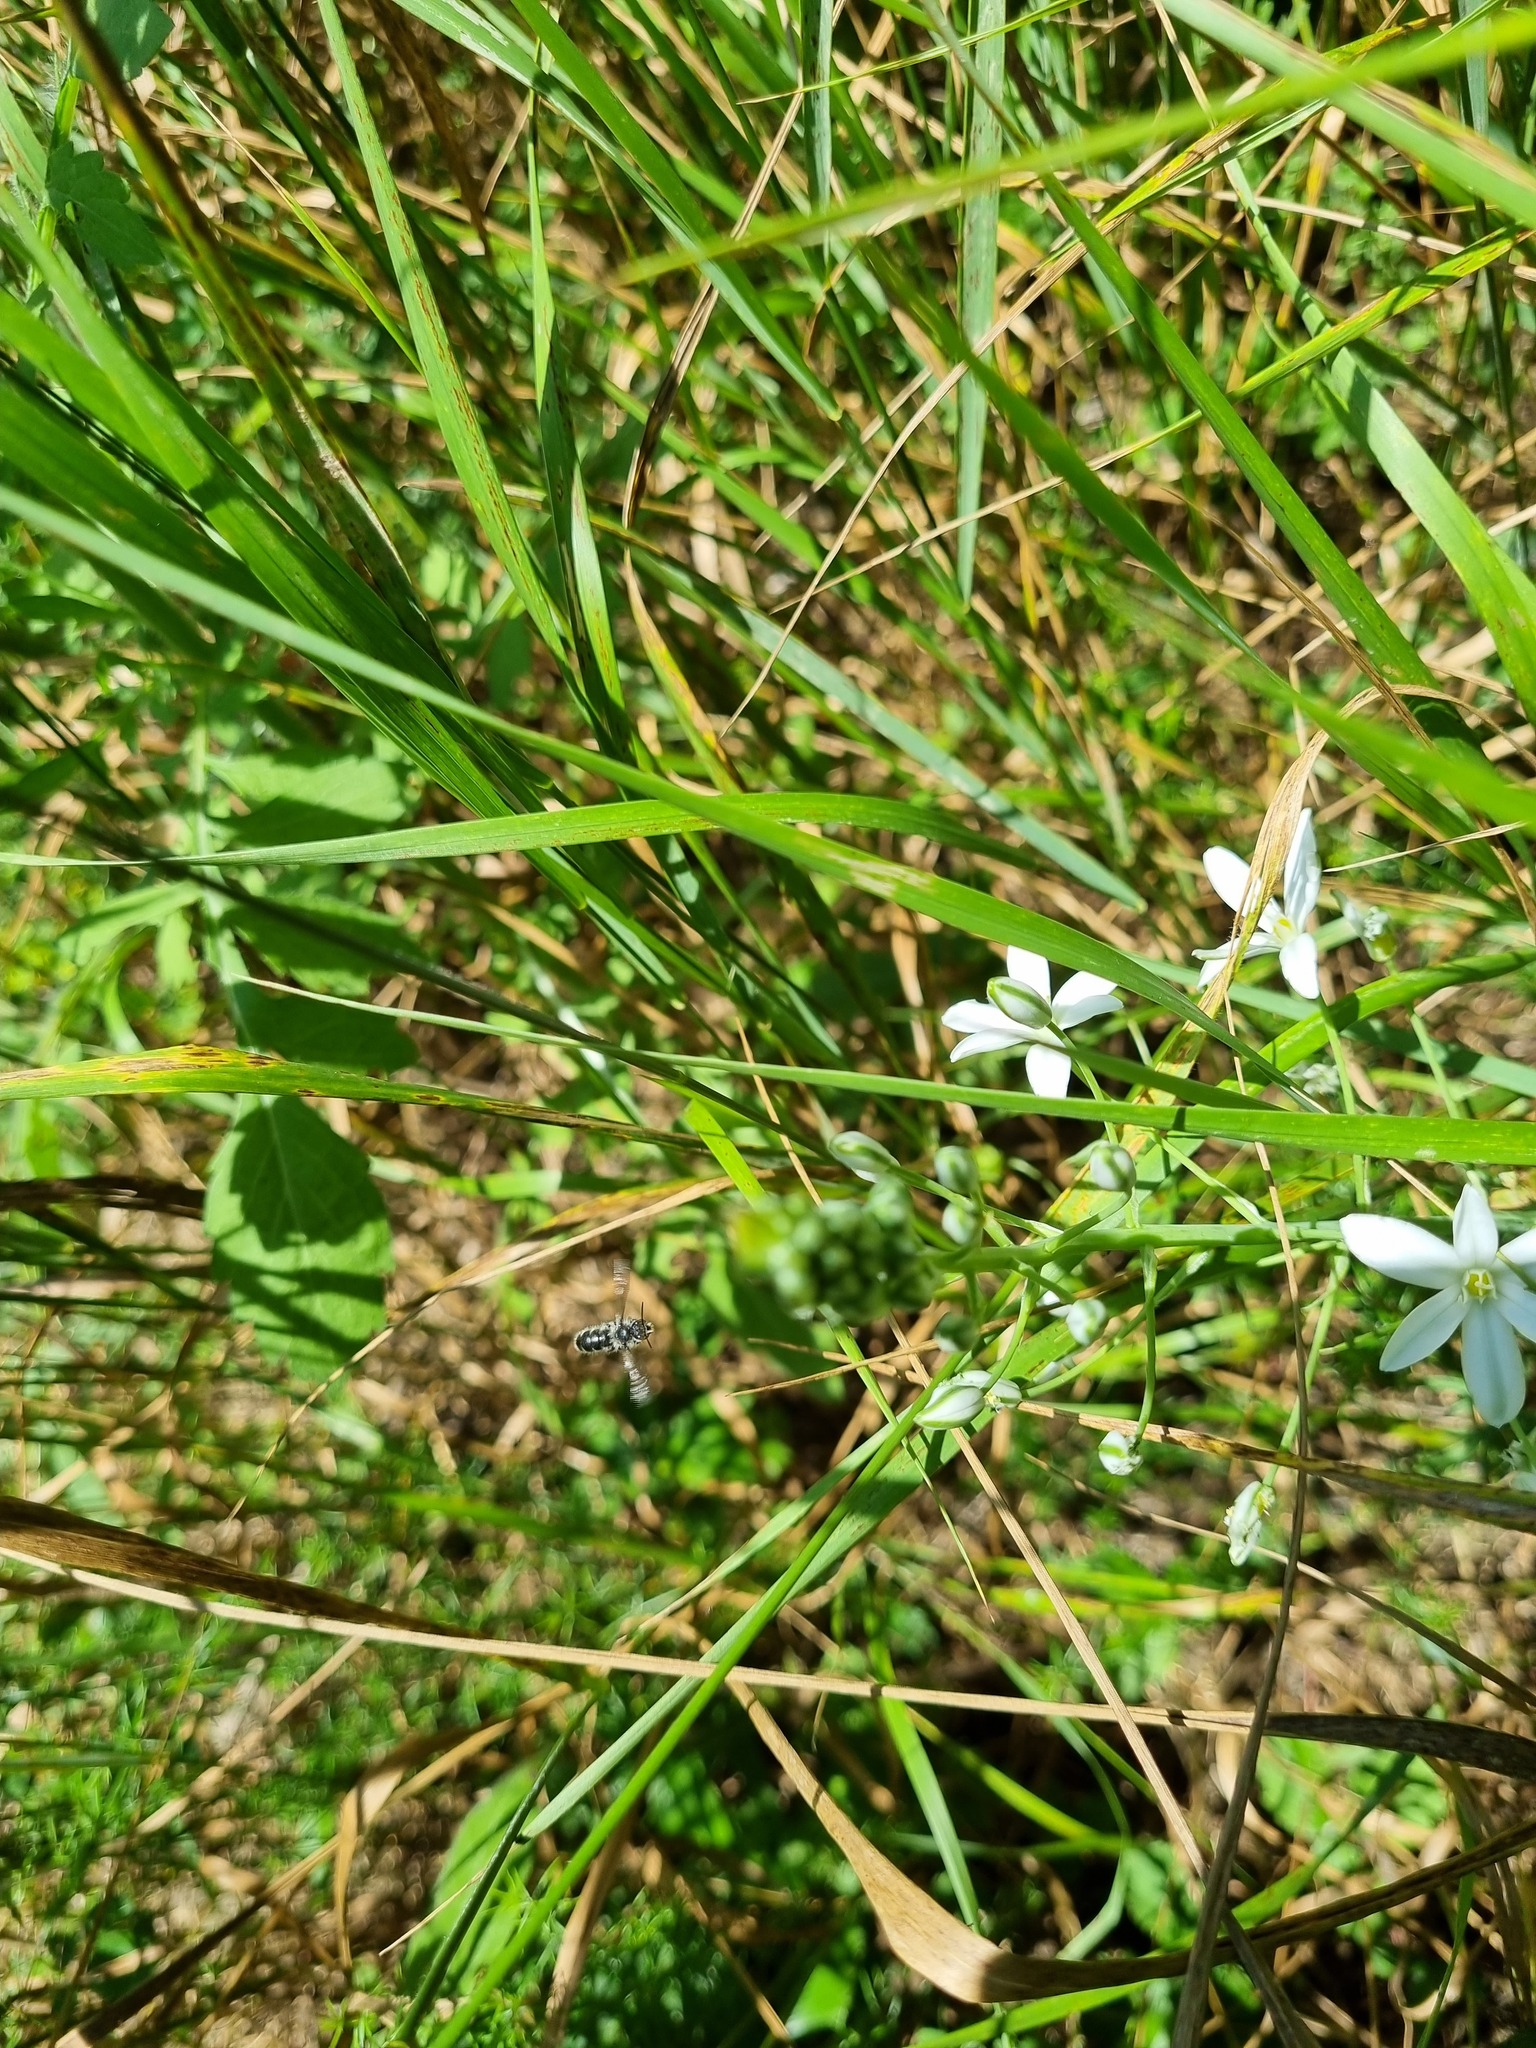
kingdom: Plantae
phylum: Tracheophyta
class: Liliopsida
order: Asparagales
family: Asparagaceae
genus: Ornithogalum
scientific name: Ornithogalum ponticum
